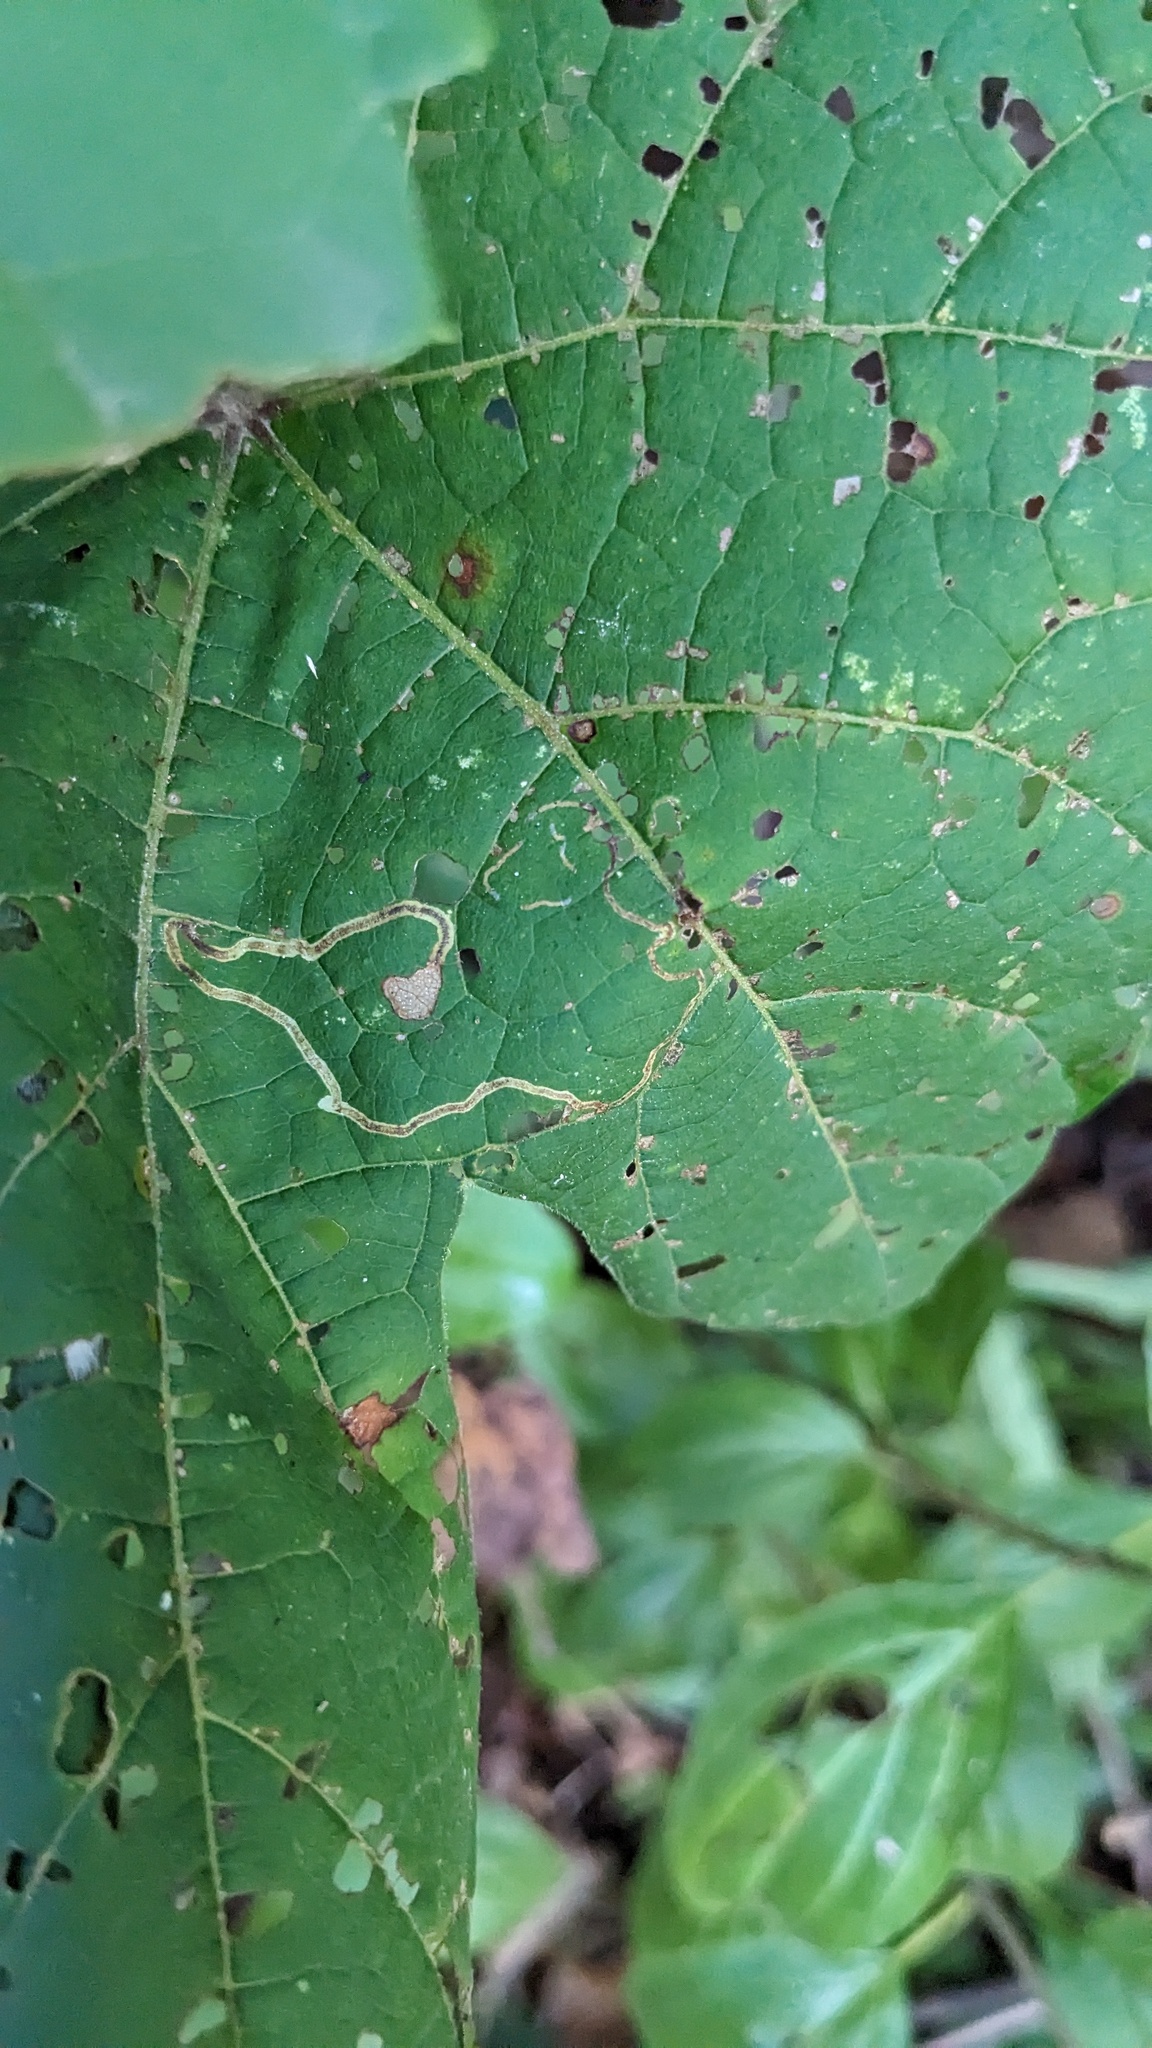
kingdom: Animalia
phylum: Arthropoda
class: Insecta
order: Lepidoptera
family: Gracillariidae
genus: Phyllocnistis
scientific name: Phyllocnistis vitifoliella
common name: Grape leaf-miner moth
